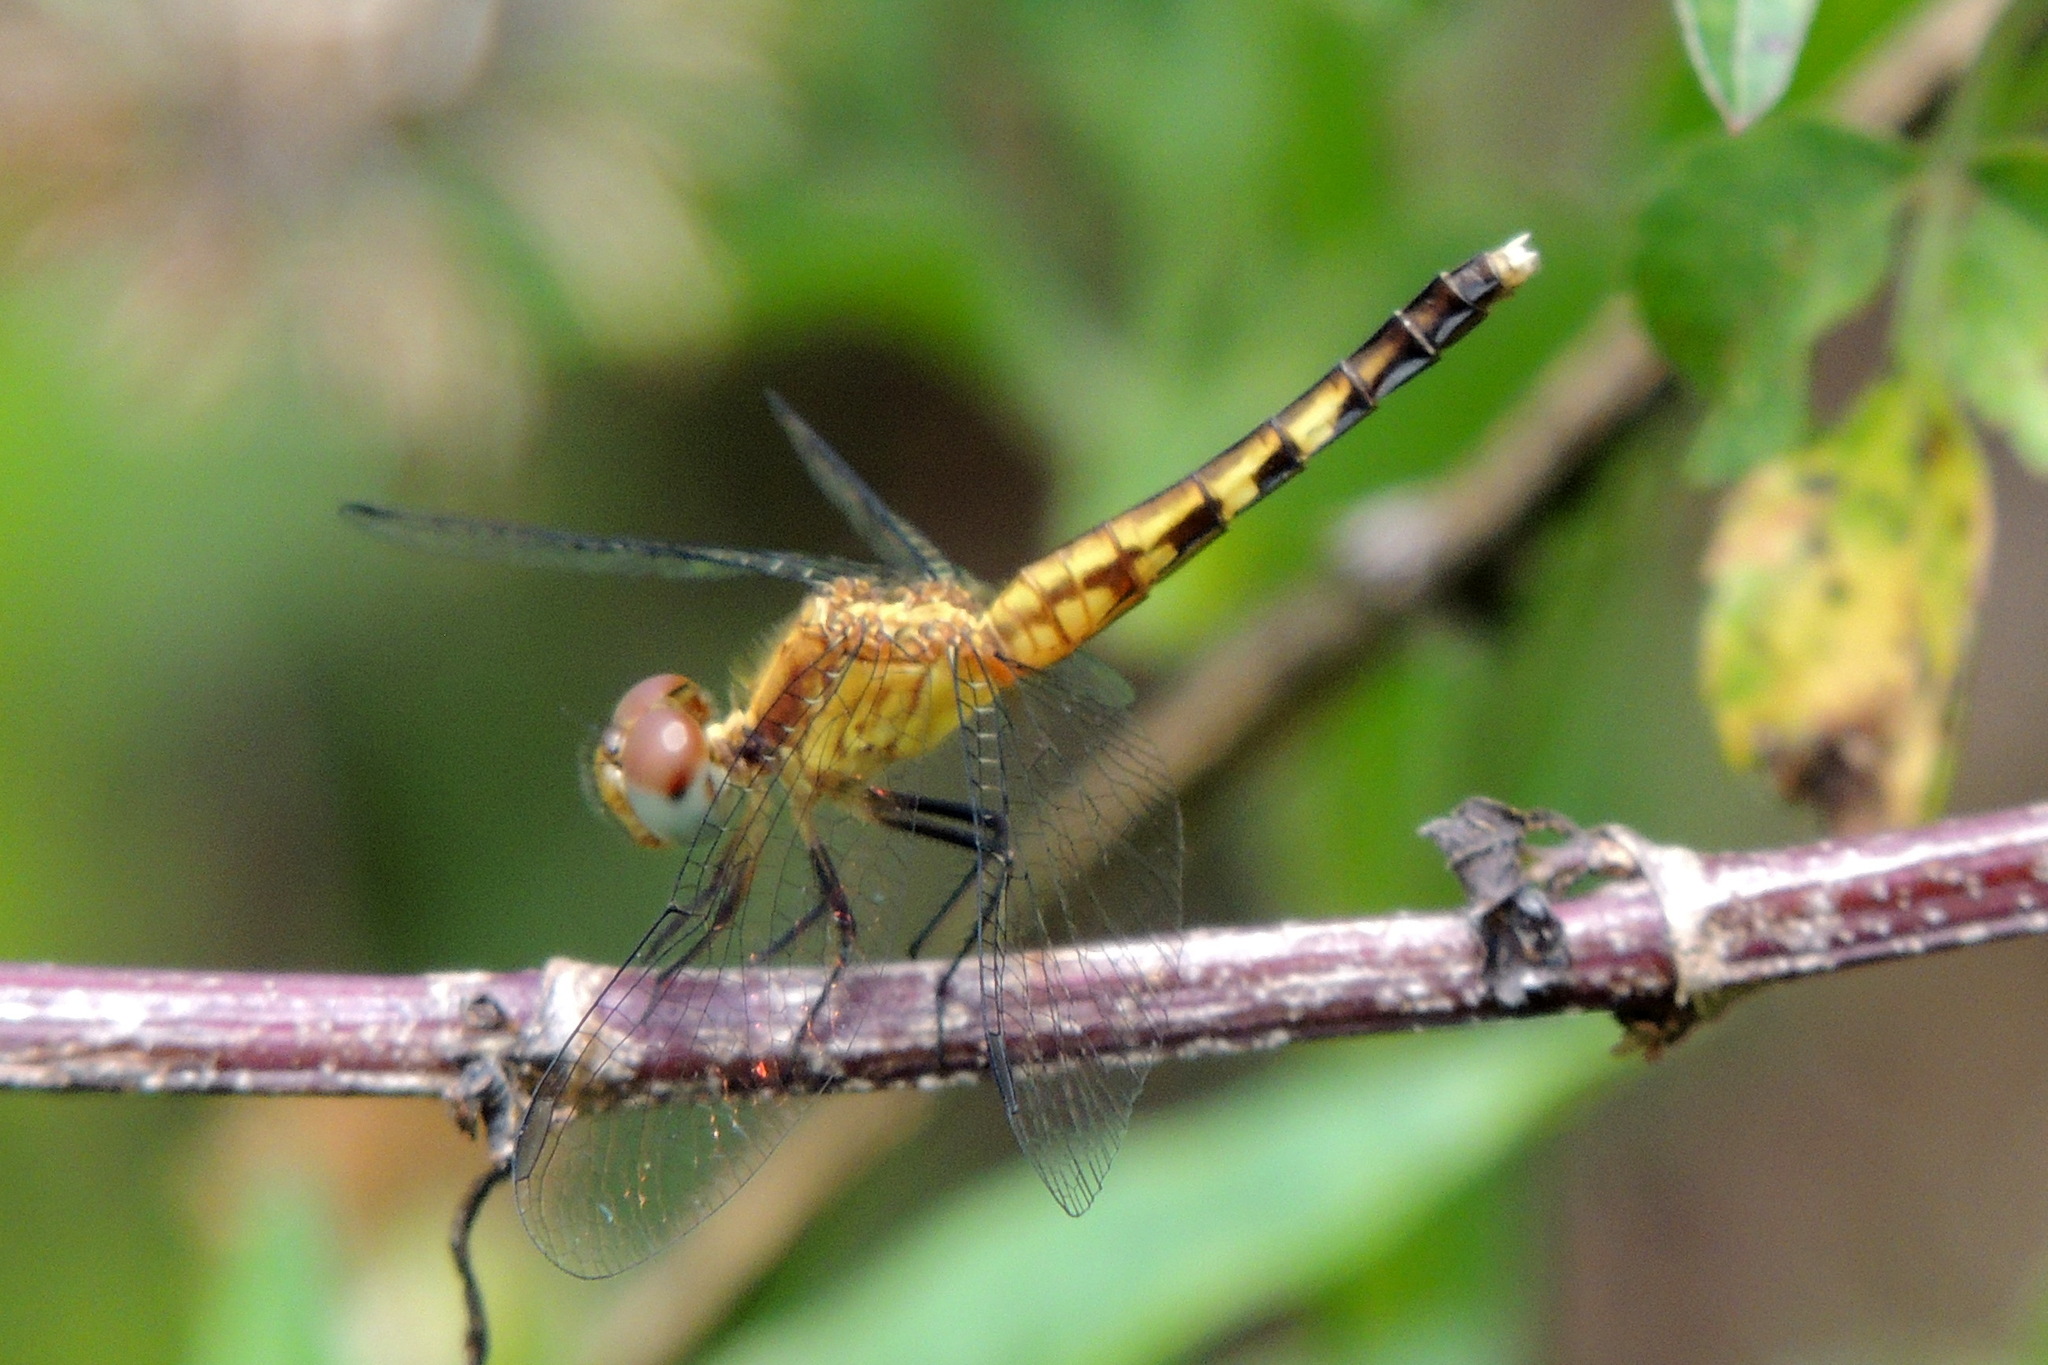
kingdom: Animalia
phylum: Arthropoda
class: Insecta
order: Odonata
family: Libellulidae
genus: Erythrodiplax
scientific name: Erythrodiplax minuscula
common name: Little blue dragonlet
